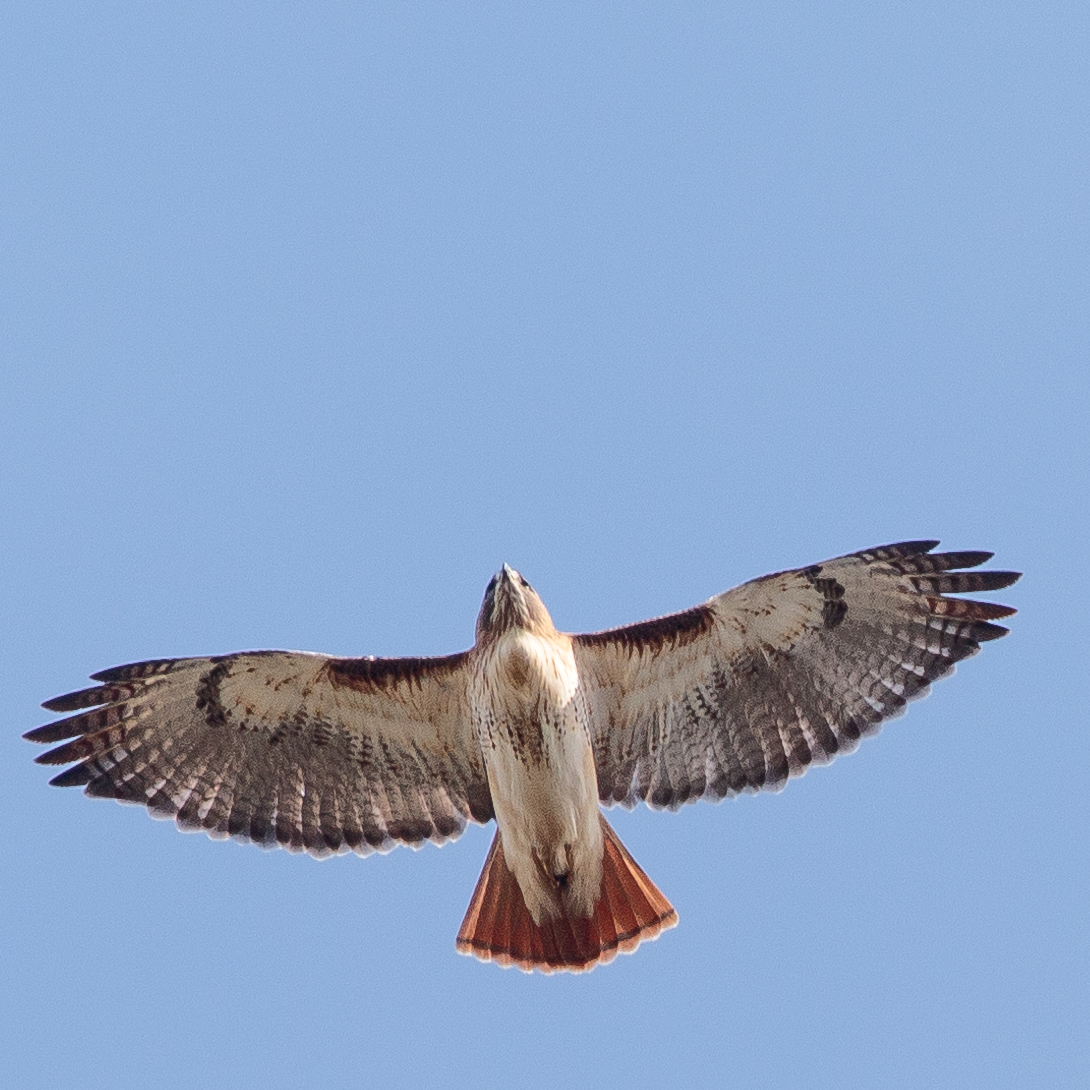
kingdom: Animalia
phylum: Chordata
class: Aves
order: Accipitriformes
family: Accipitridae
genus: Buteo
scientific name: Buteo jamaicensis
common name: Red-tailed hawk
